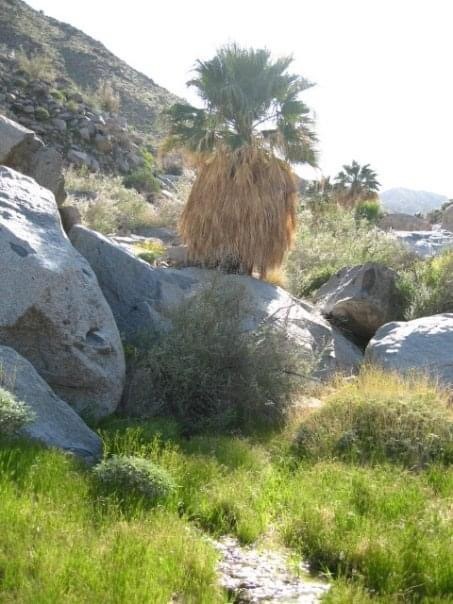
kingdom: Plantae
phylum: Tracheophyta
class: Liliopsida
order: Arecales
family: Arecaceae
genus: Washingtonia
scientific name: Washingtonia filifera
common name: California fan palm
